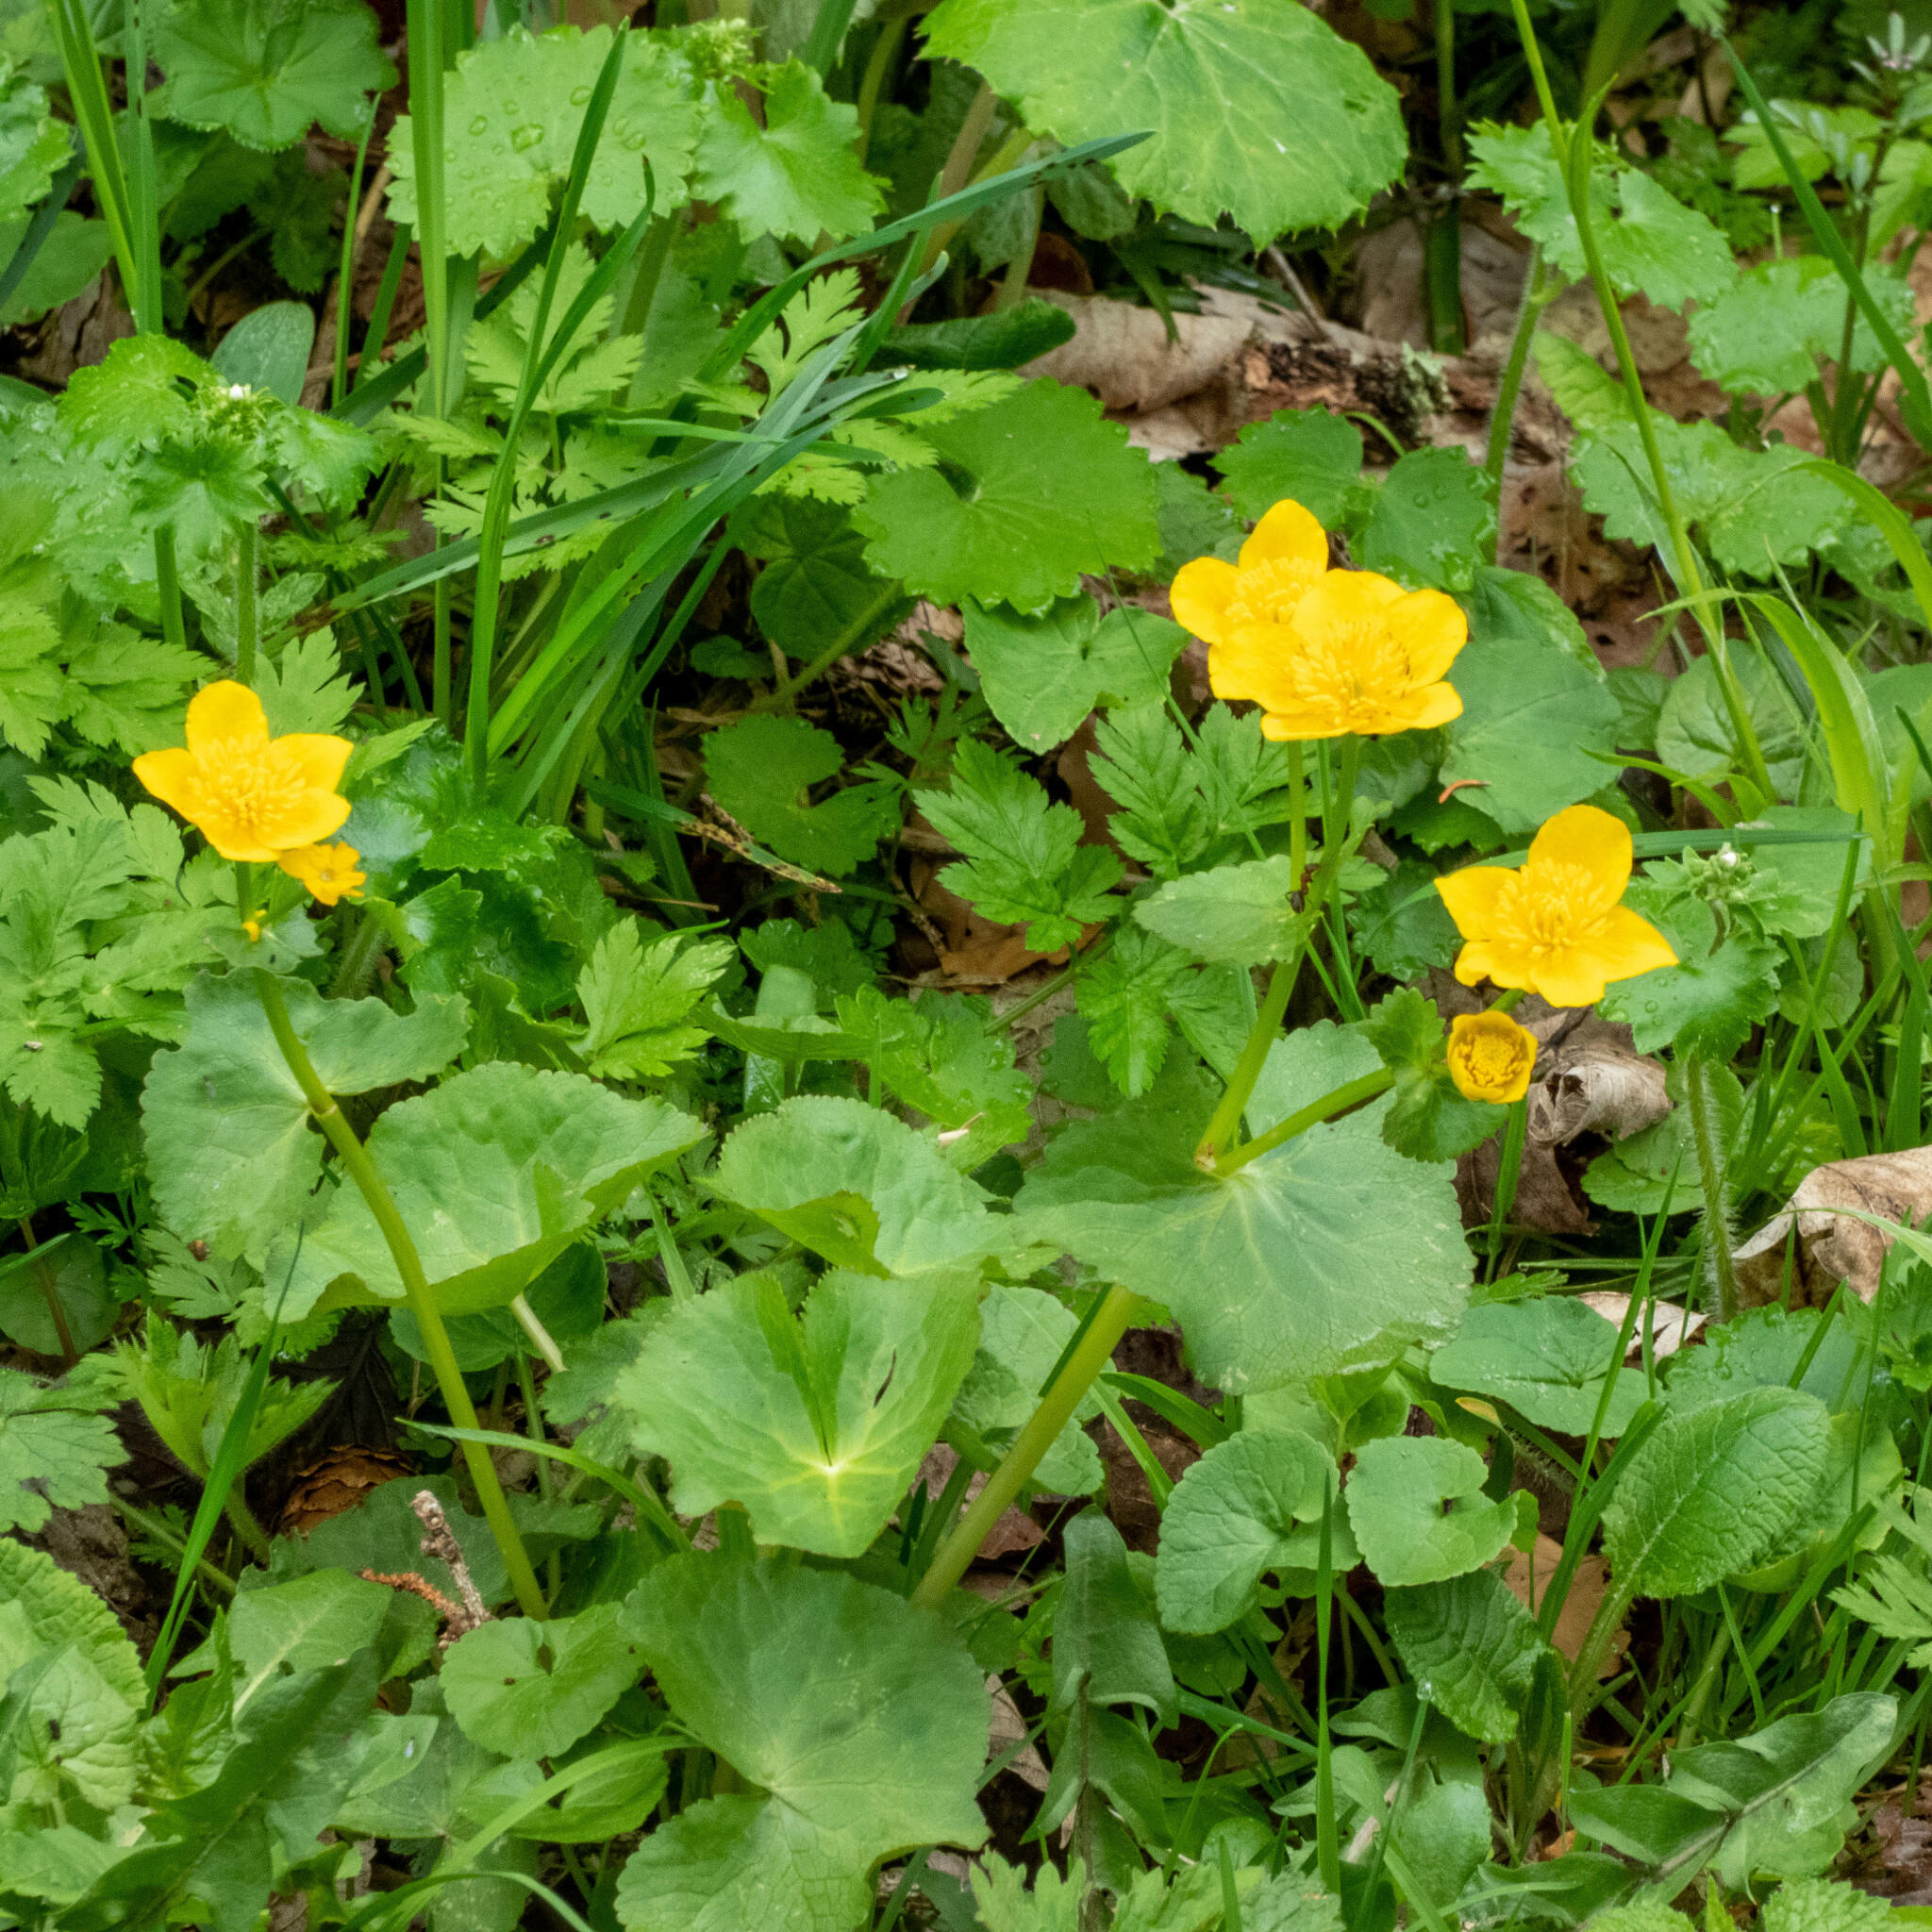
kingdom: Plantae
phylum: Tracheophyta
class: Magnoliopsida
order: Ranunculales
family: Ranunculaceae
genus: Caltha
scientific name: Caltha palustris
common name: Marsh marigold
